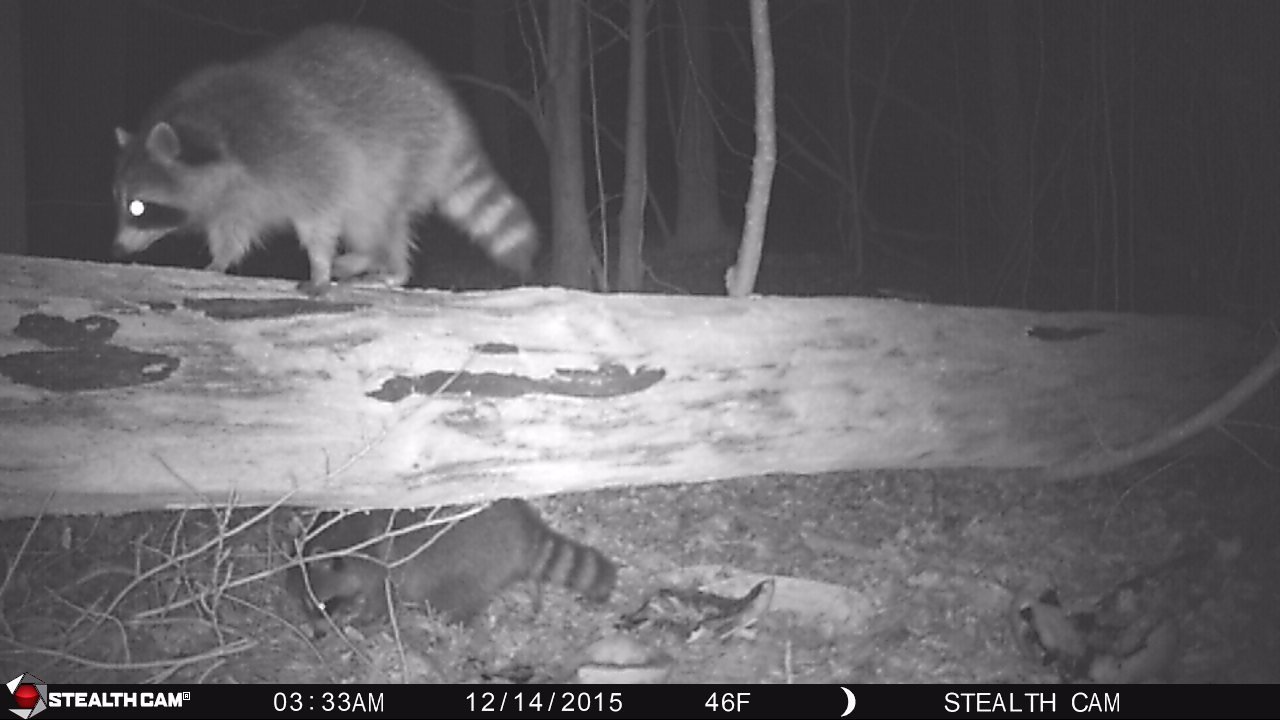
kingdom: Animalia
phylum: Chordata
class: Mammalia
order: Carnivora
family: Procyonidae
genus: Procyon
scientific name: Procyon lotor
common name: Raccoon
